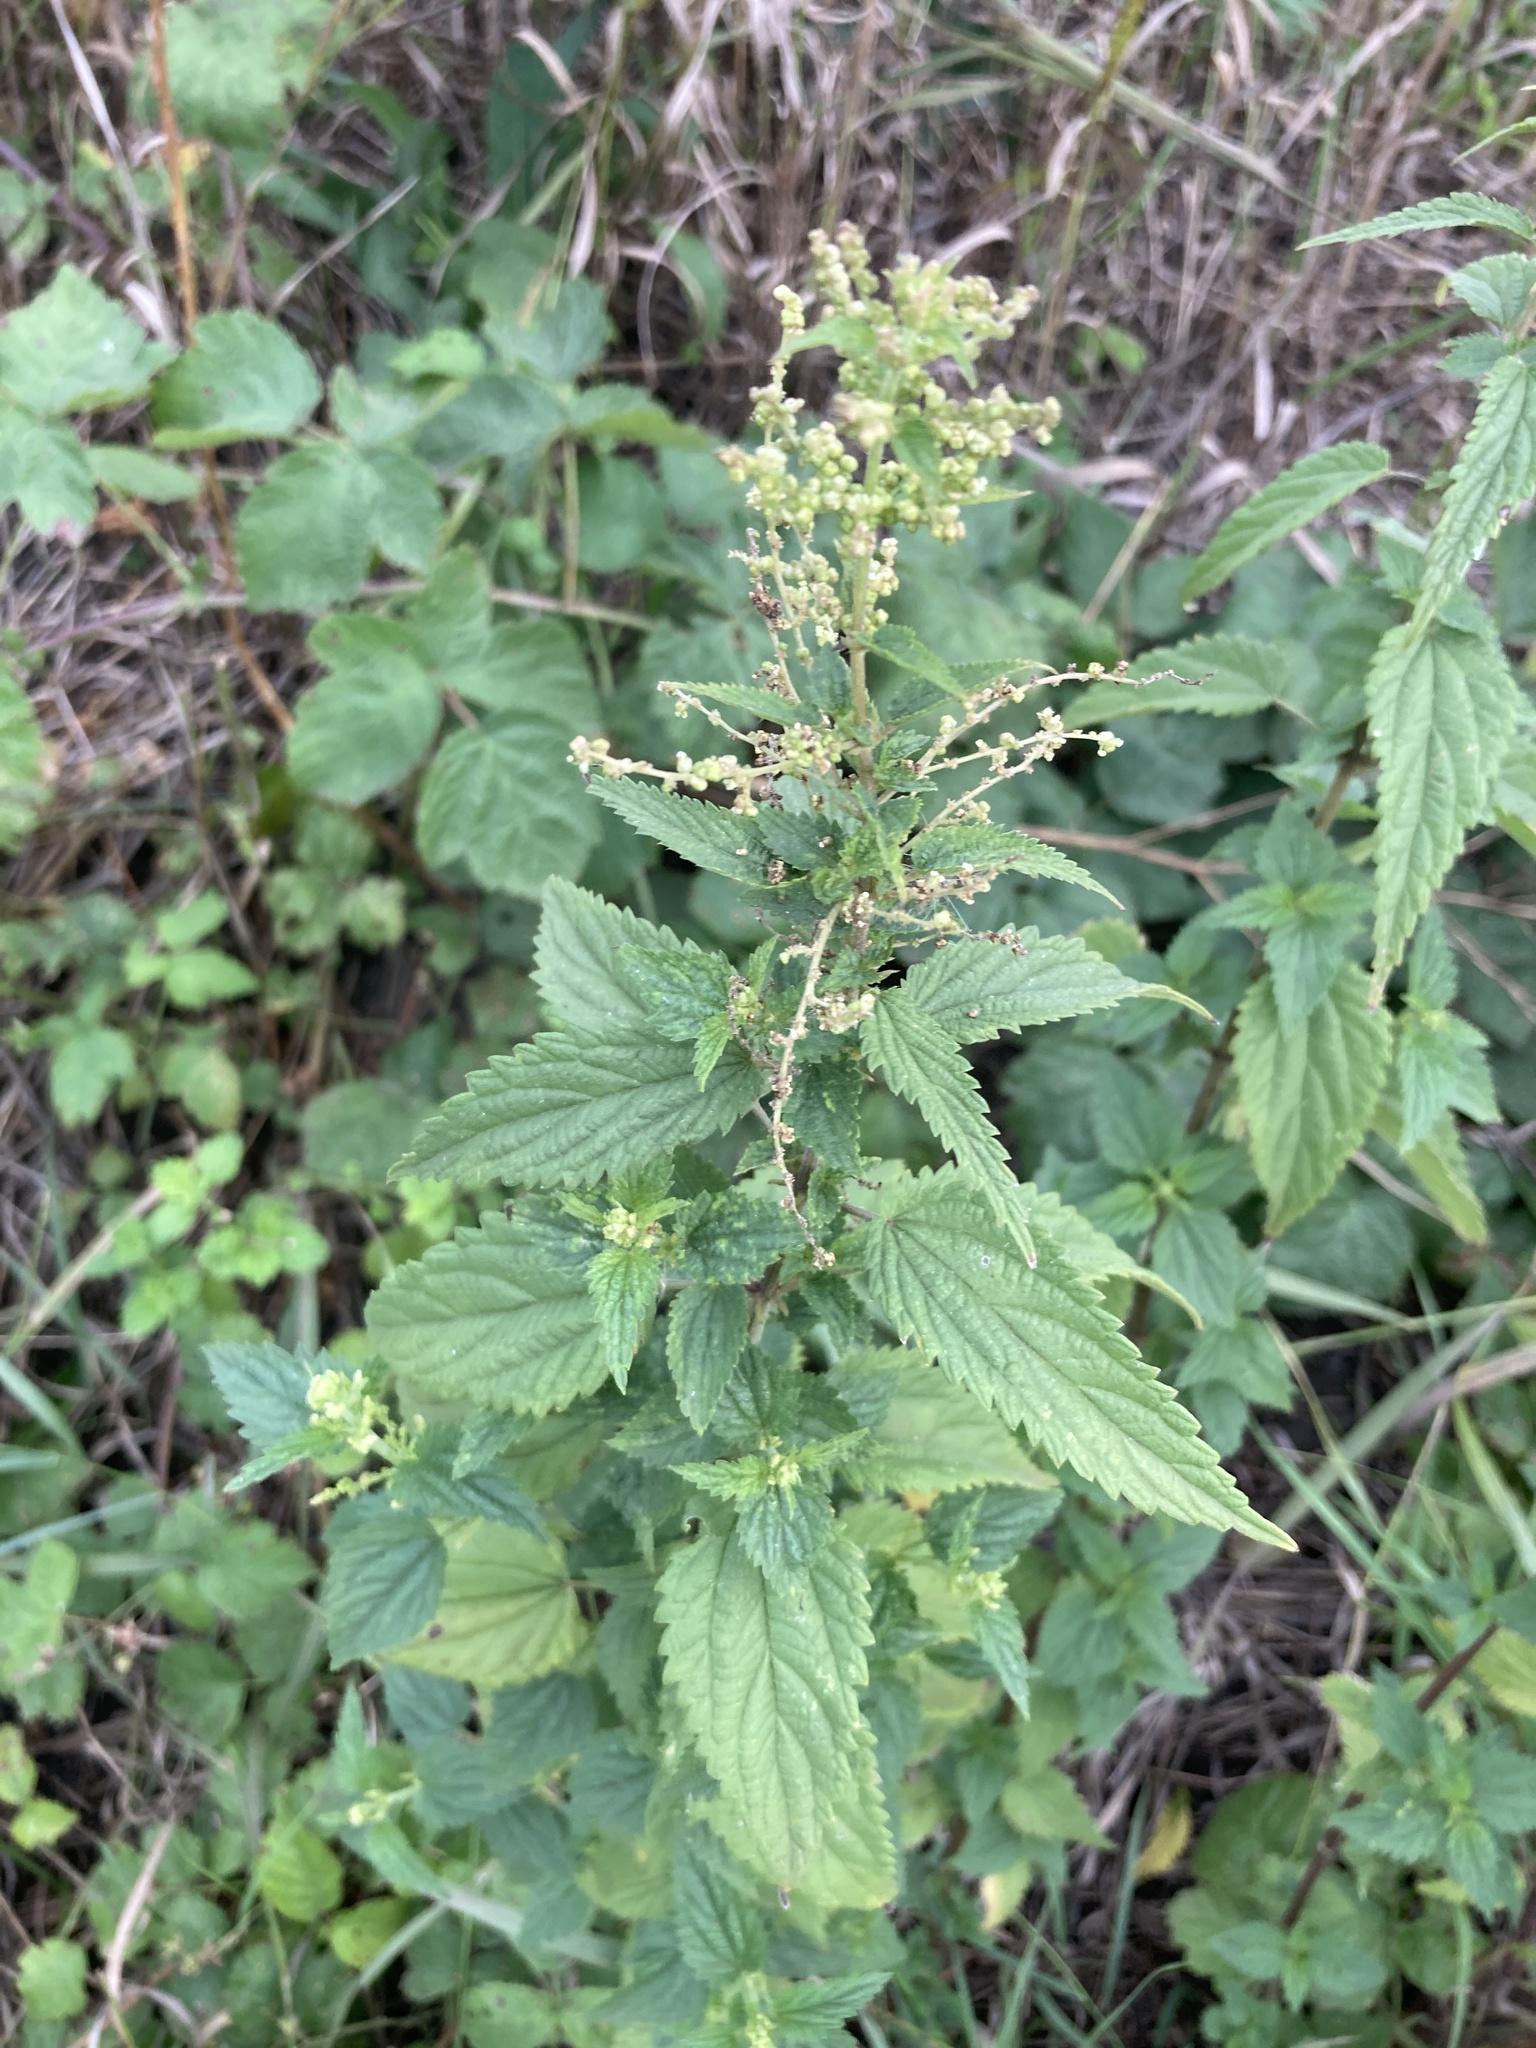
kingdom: Plantae
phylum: Tracheophyta
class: Magnoliopsida
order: Rosales
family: Urticaceae
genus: Urtica
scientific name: Urtica dioica
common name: Common nettle
